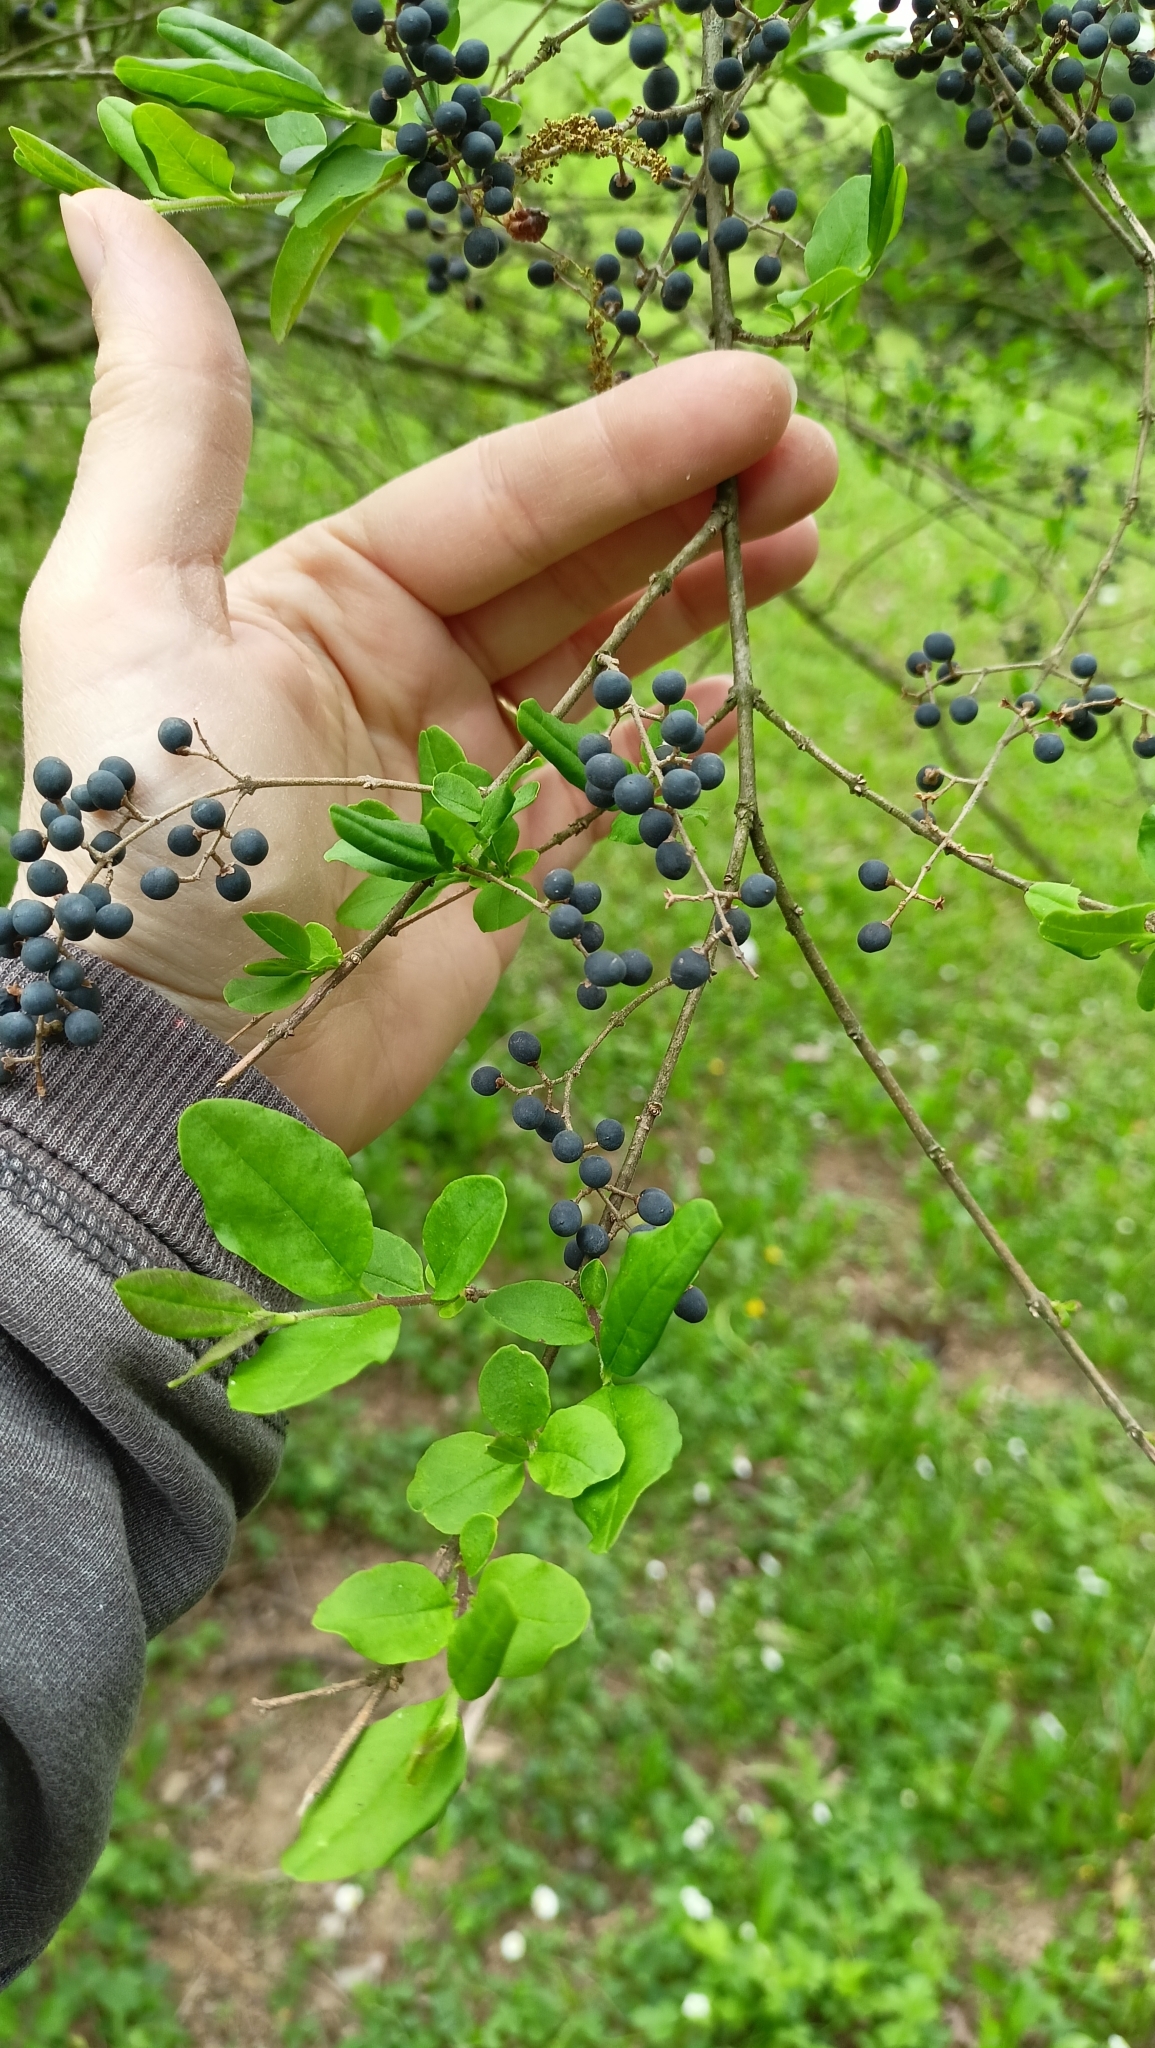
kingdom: Plantae
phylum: Tracheophyta
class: Magnoliopsida
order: Lamiales
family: Oleaceae
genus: Ligustrum
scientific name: Ligustrum sinense
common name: Chinese privet
